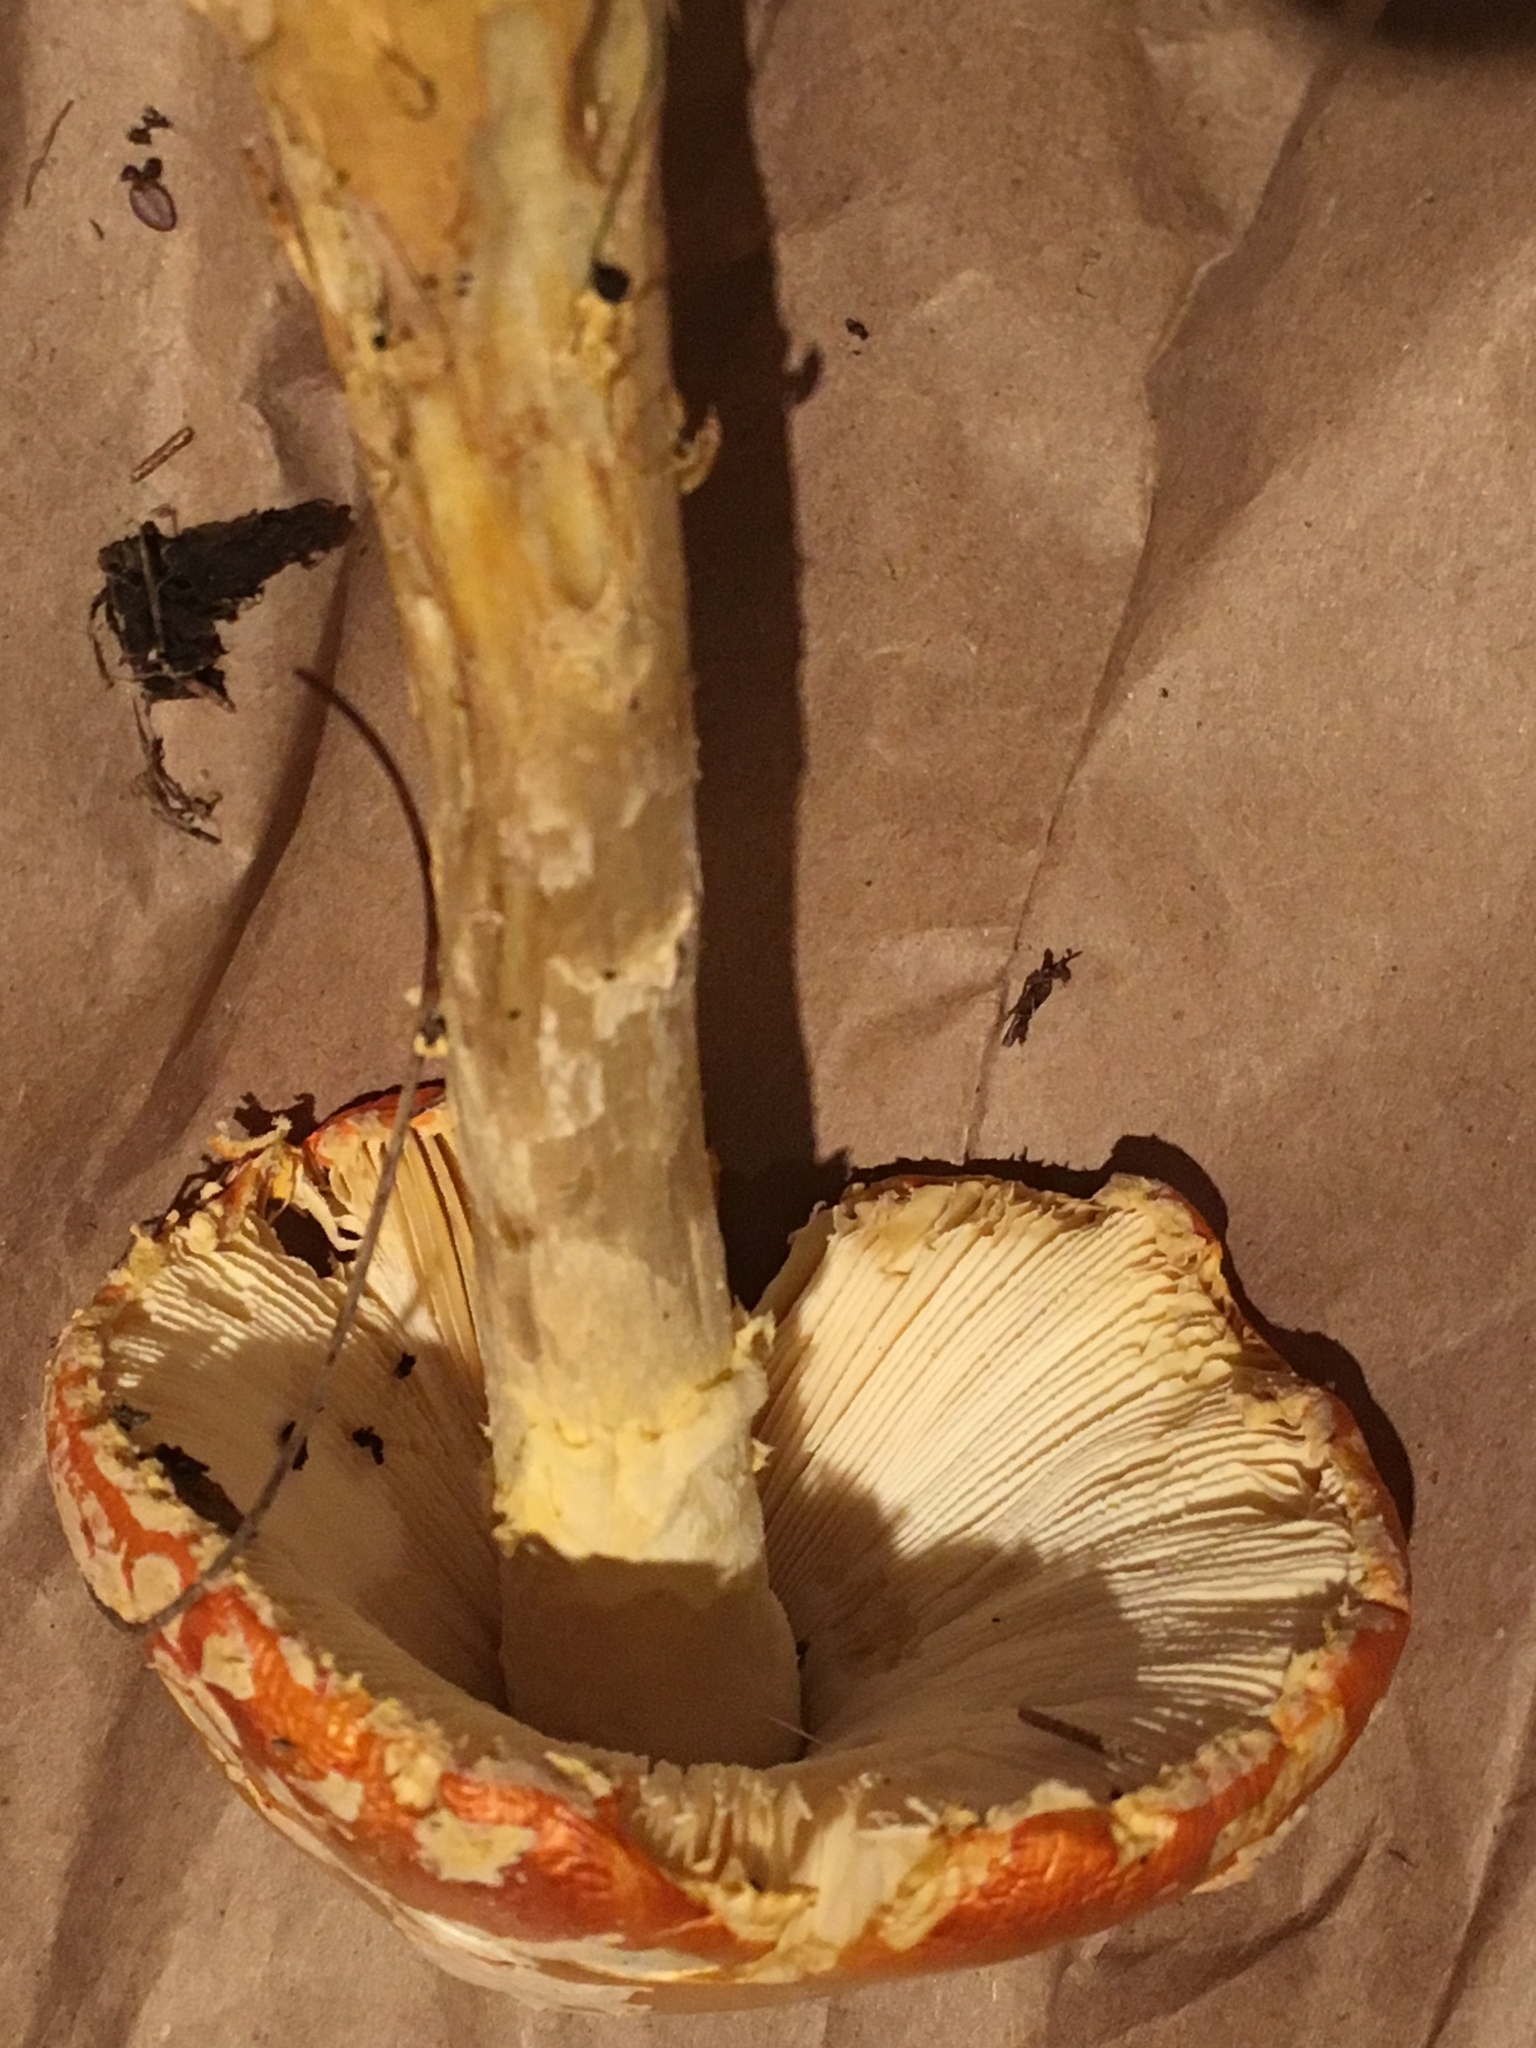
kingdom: Fungi
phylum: Basidiomycota
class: Agaricomycetes
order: Agaricales
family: Amanitaceae
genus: Amanita
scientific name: Amanita muscaria
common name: Fly agaric
